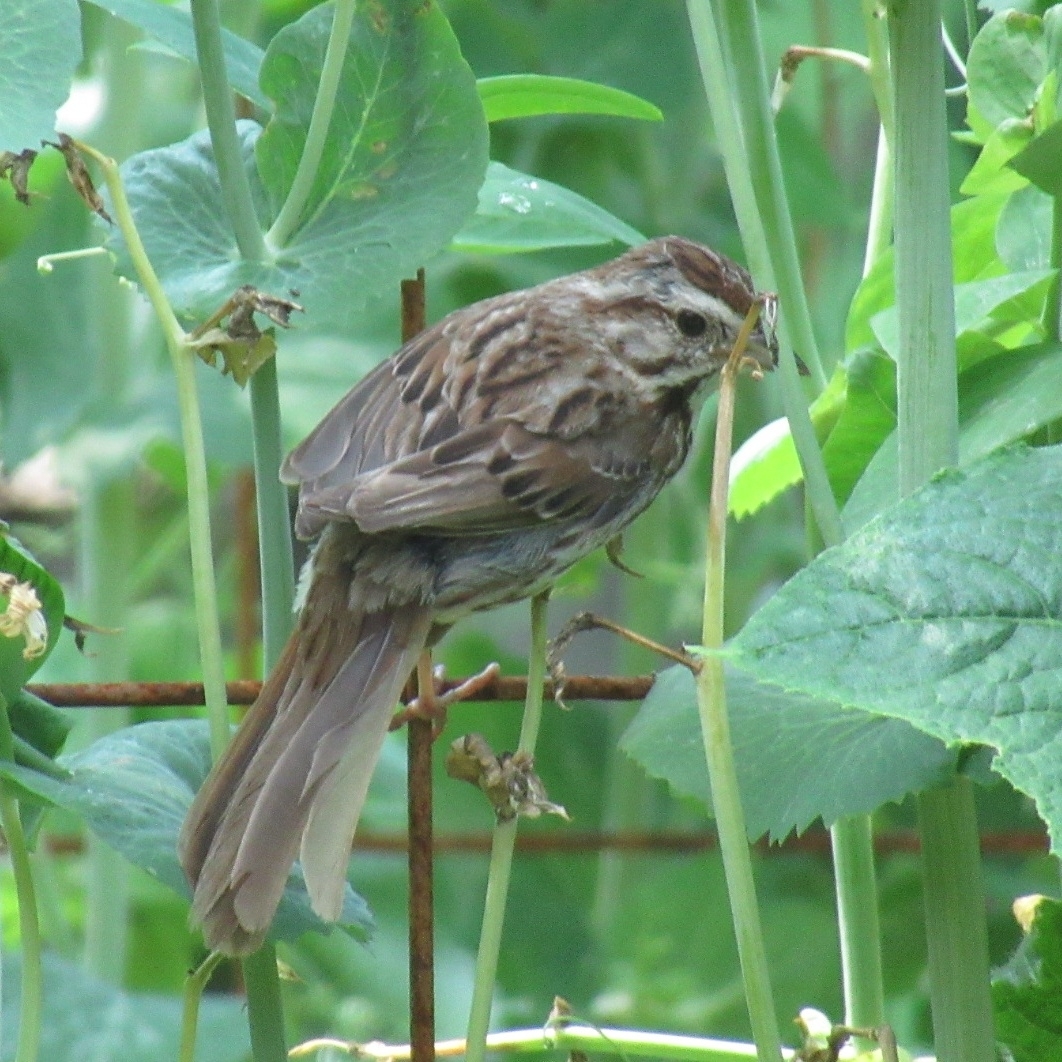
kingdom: Animalia
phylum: Chordata
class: Aves
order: Passeriformes
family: Passerellidae
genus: Melospiza
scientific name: Melospiza melodia
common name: Song sparrow
